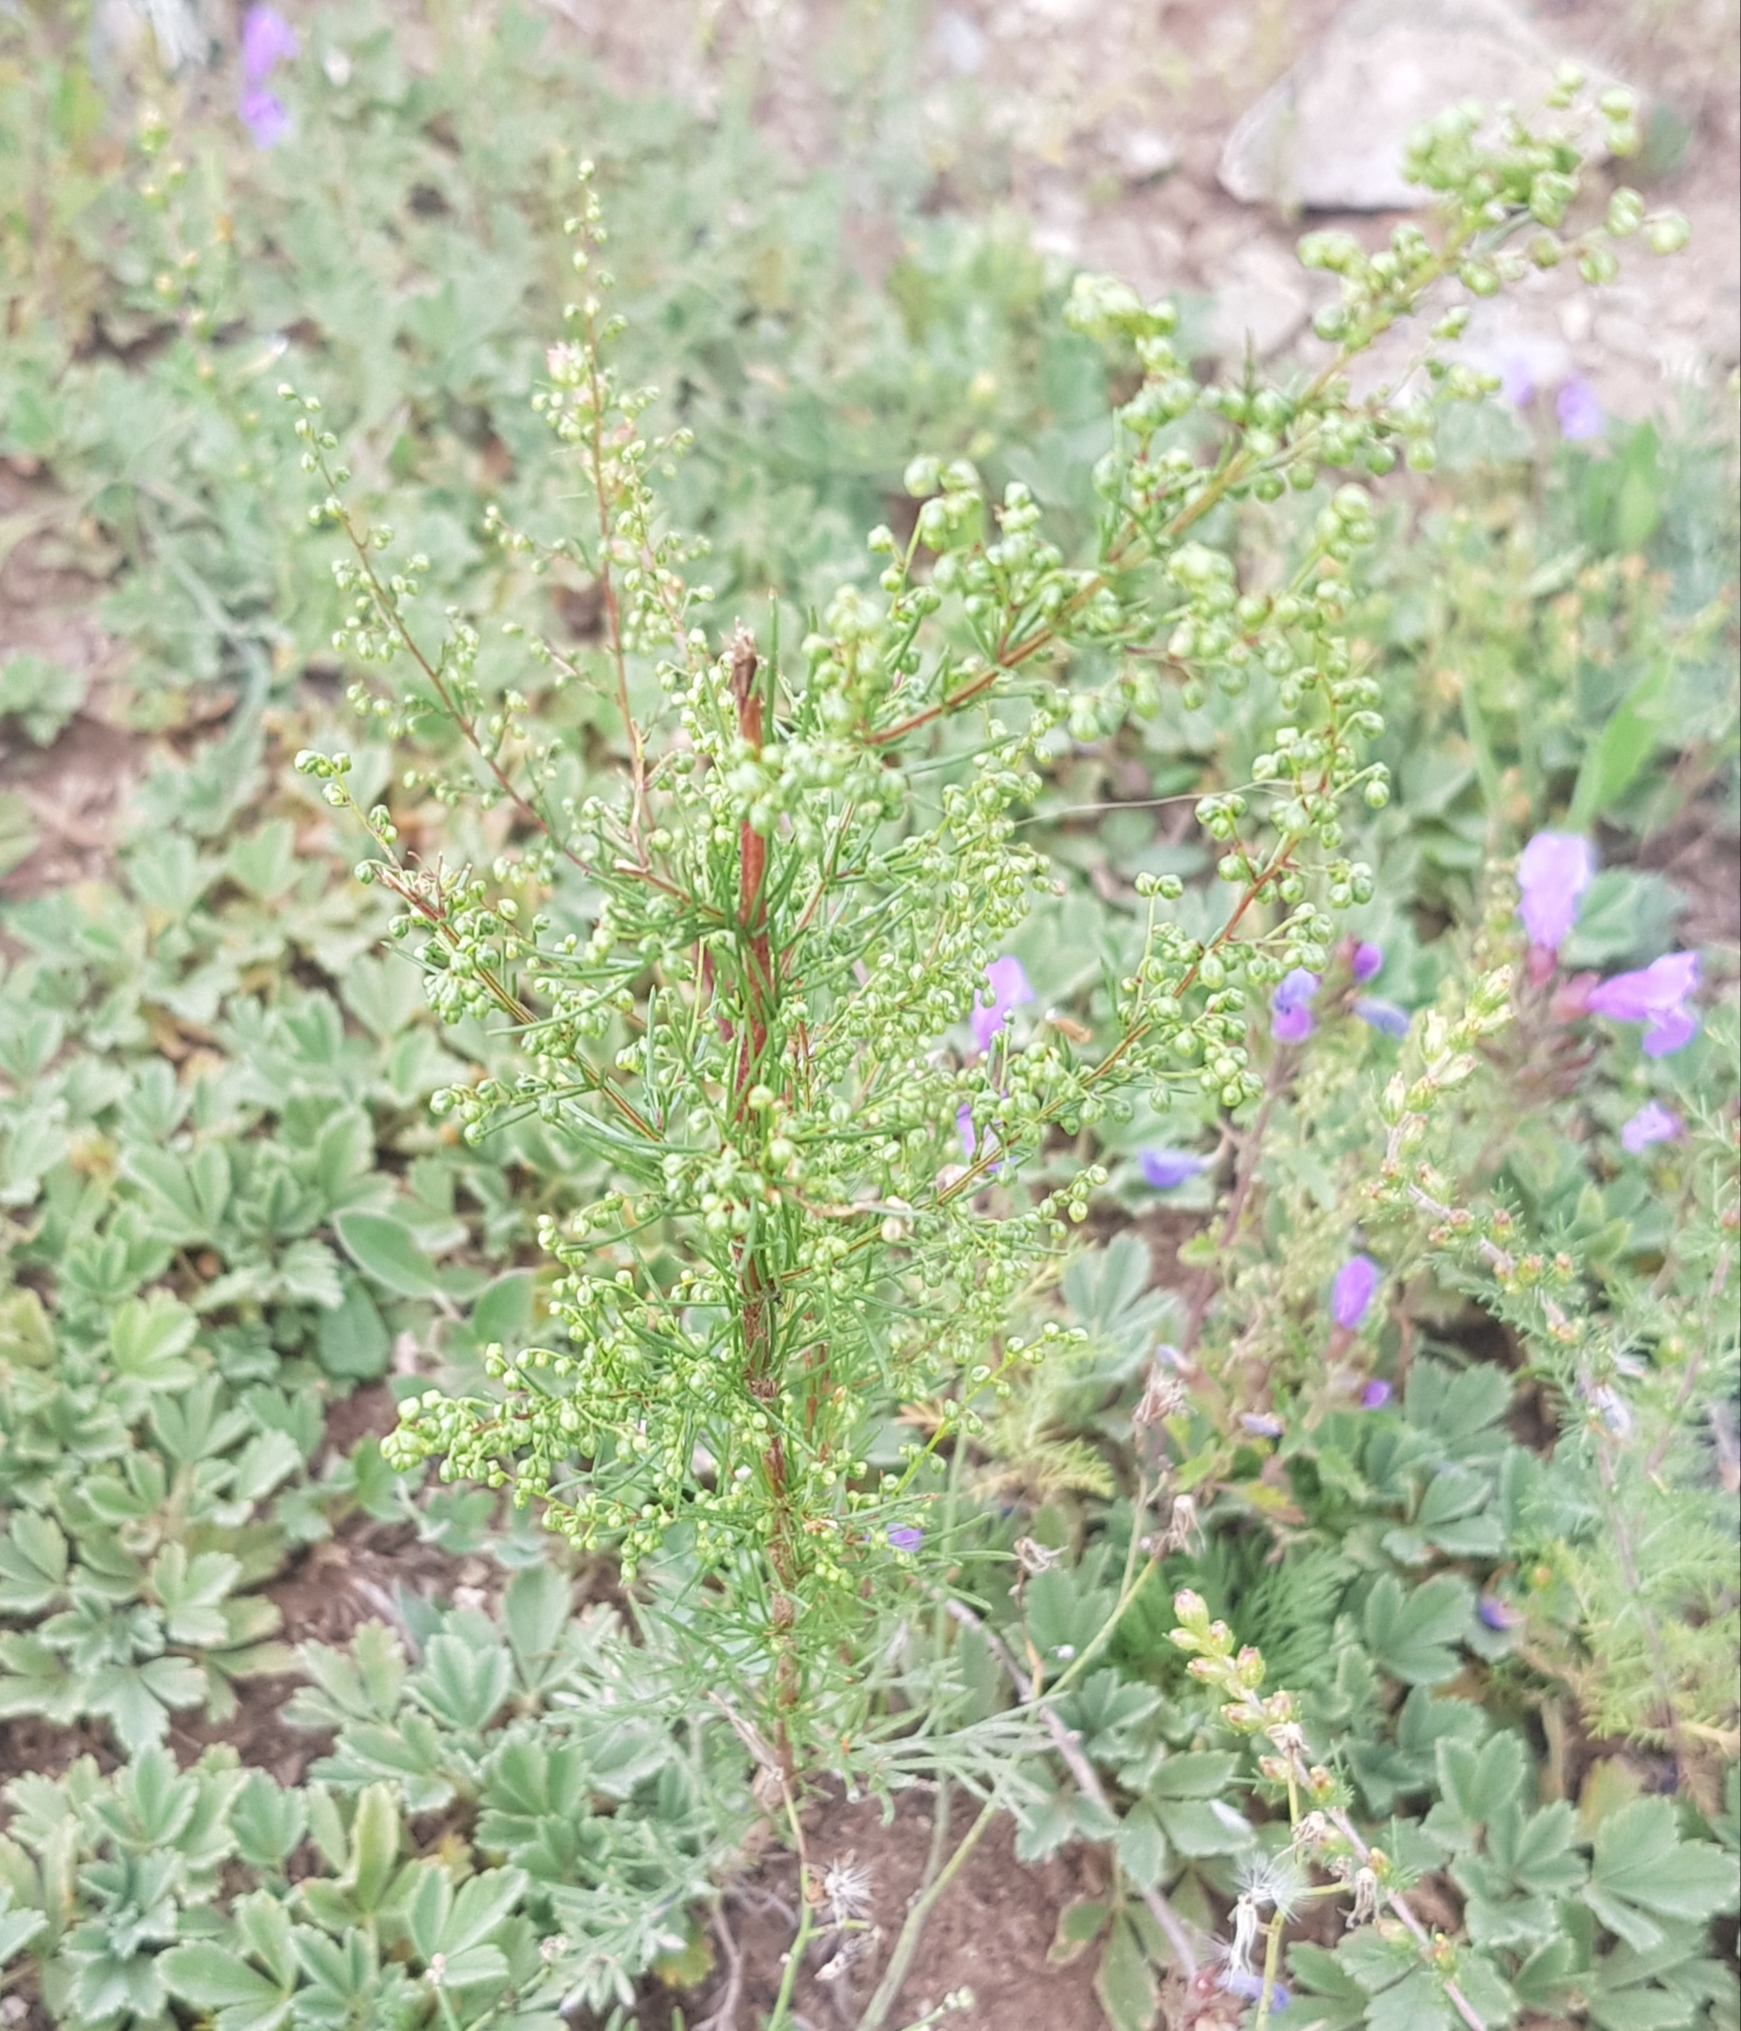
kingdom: Plantae
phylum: Tracheophyta
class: Magnoliopsida
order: Asterales
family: Asteraceae
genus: Artemisia
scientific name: Artemisia scoparia
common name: Redstem wormwood
